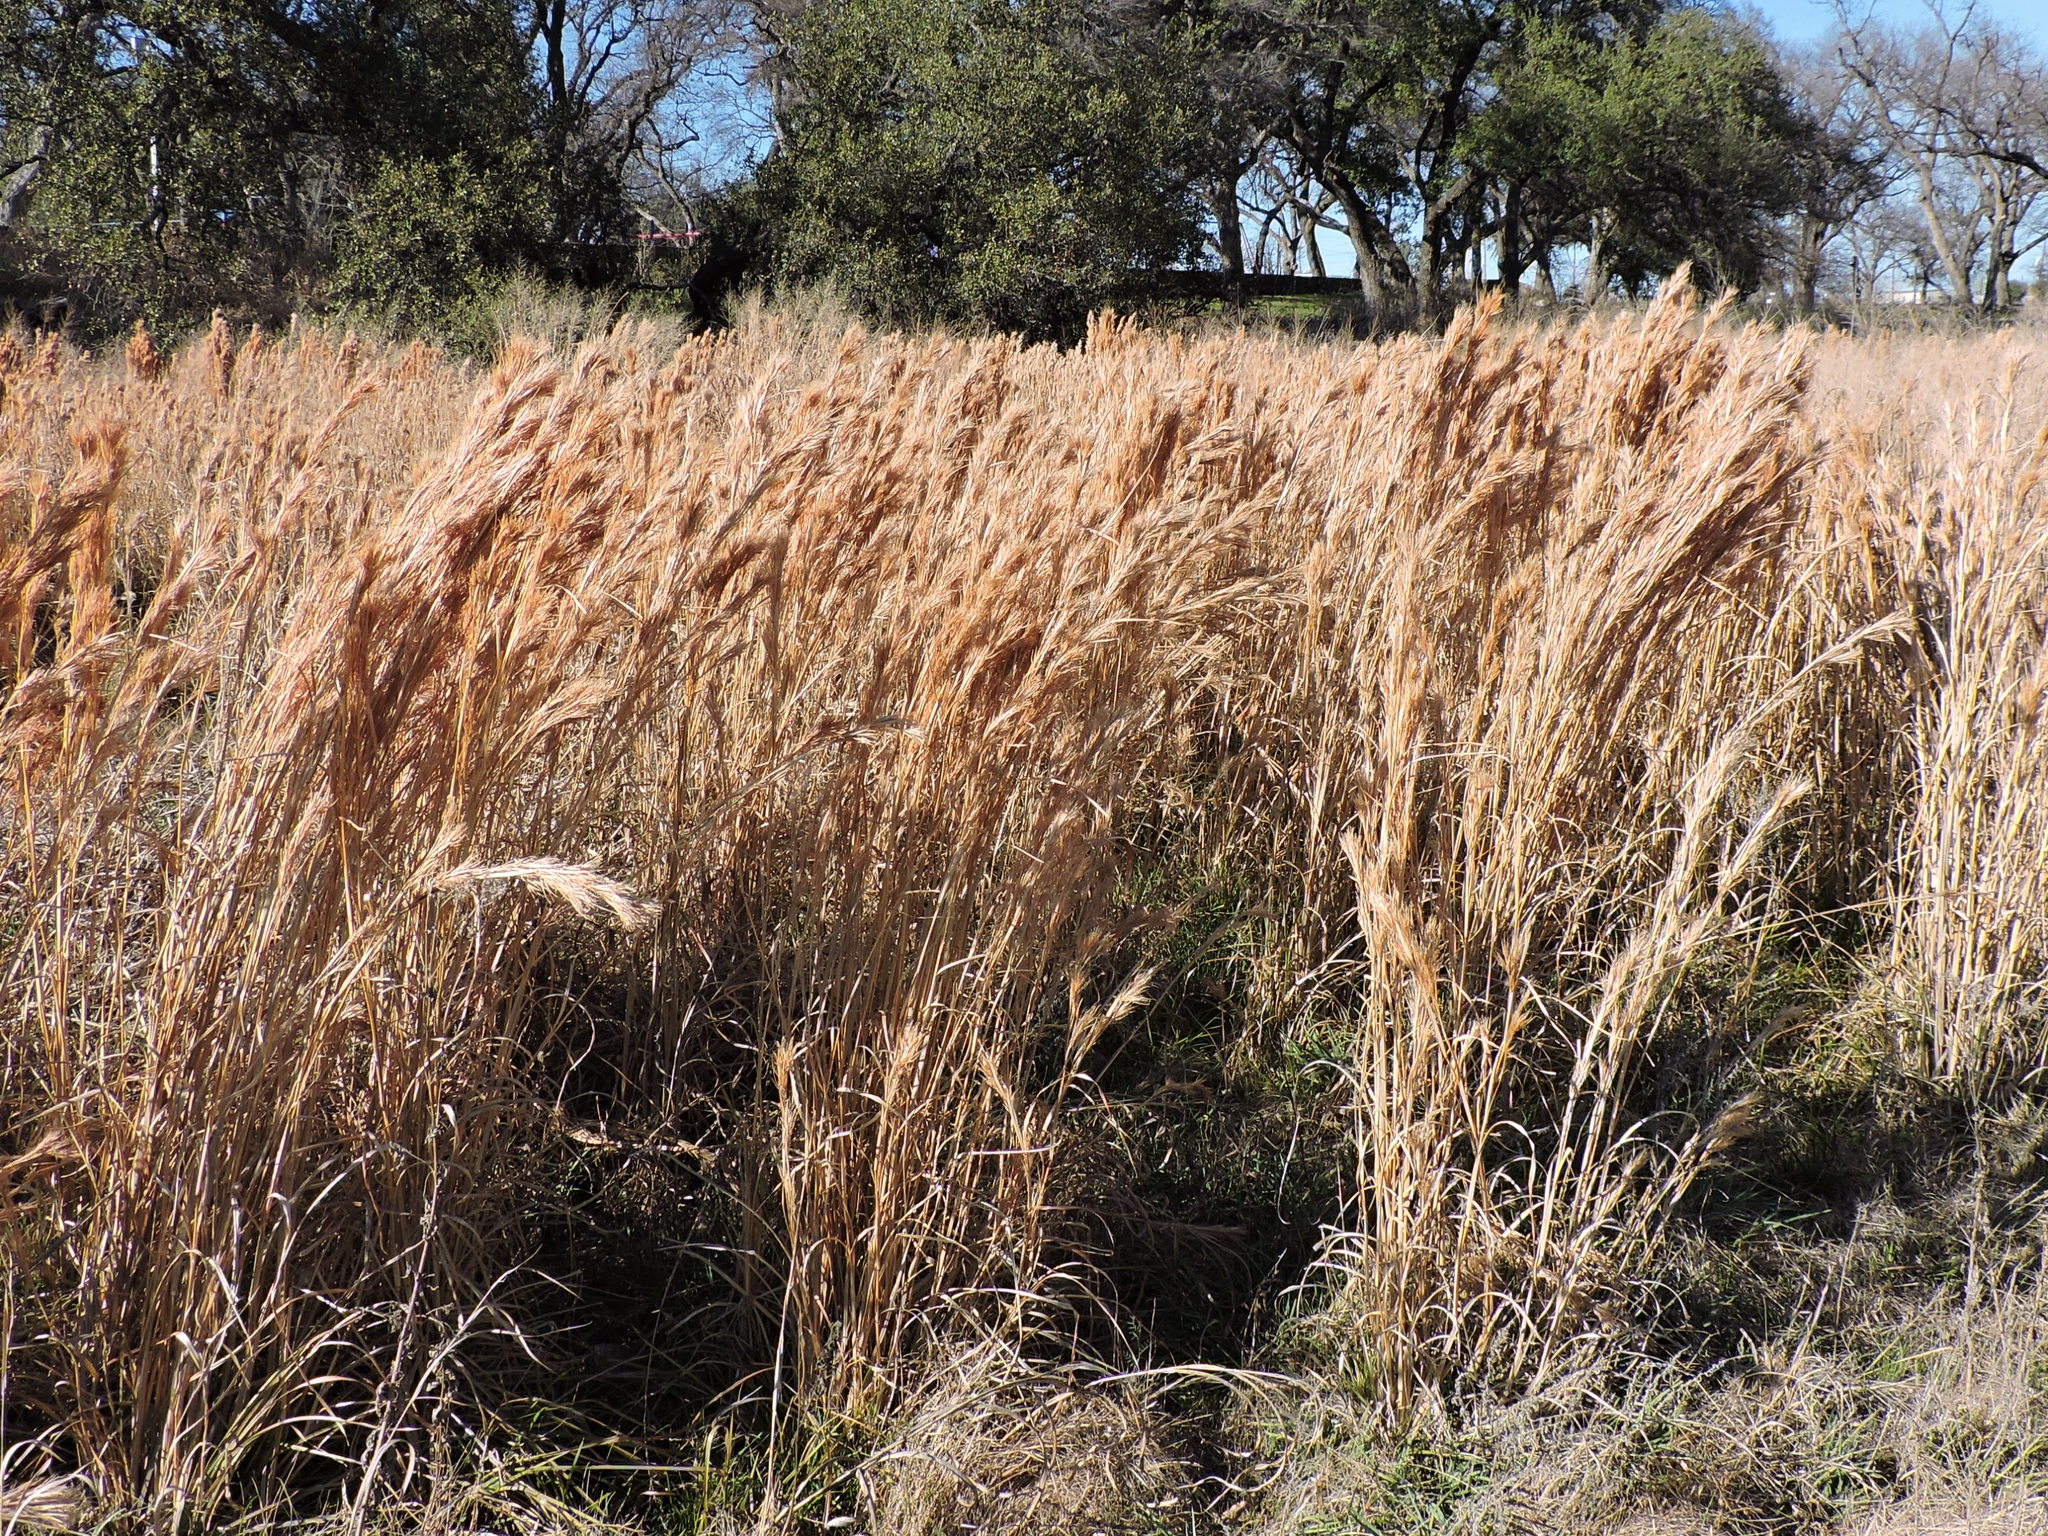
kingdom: Plantae
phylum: Tracheophyta
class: Liliopsida
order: Poales
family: Poaceae
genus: Andropogon
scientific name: Andropogon tenuispatheus
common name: Bushy bluestem
